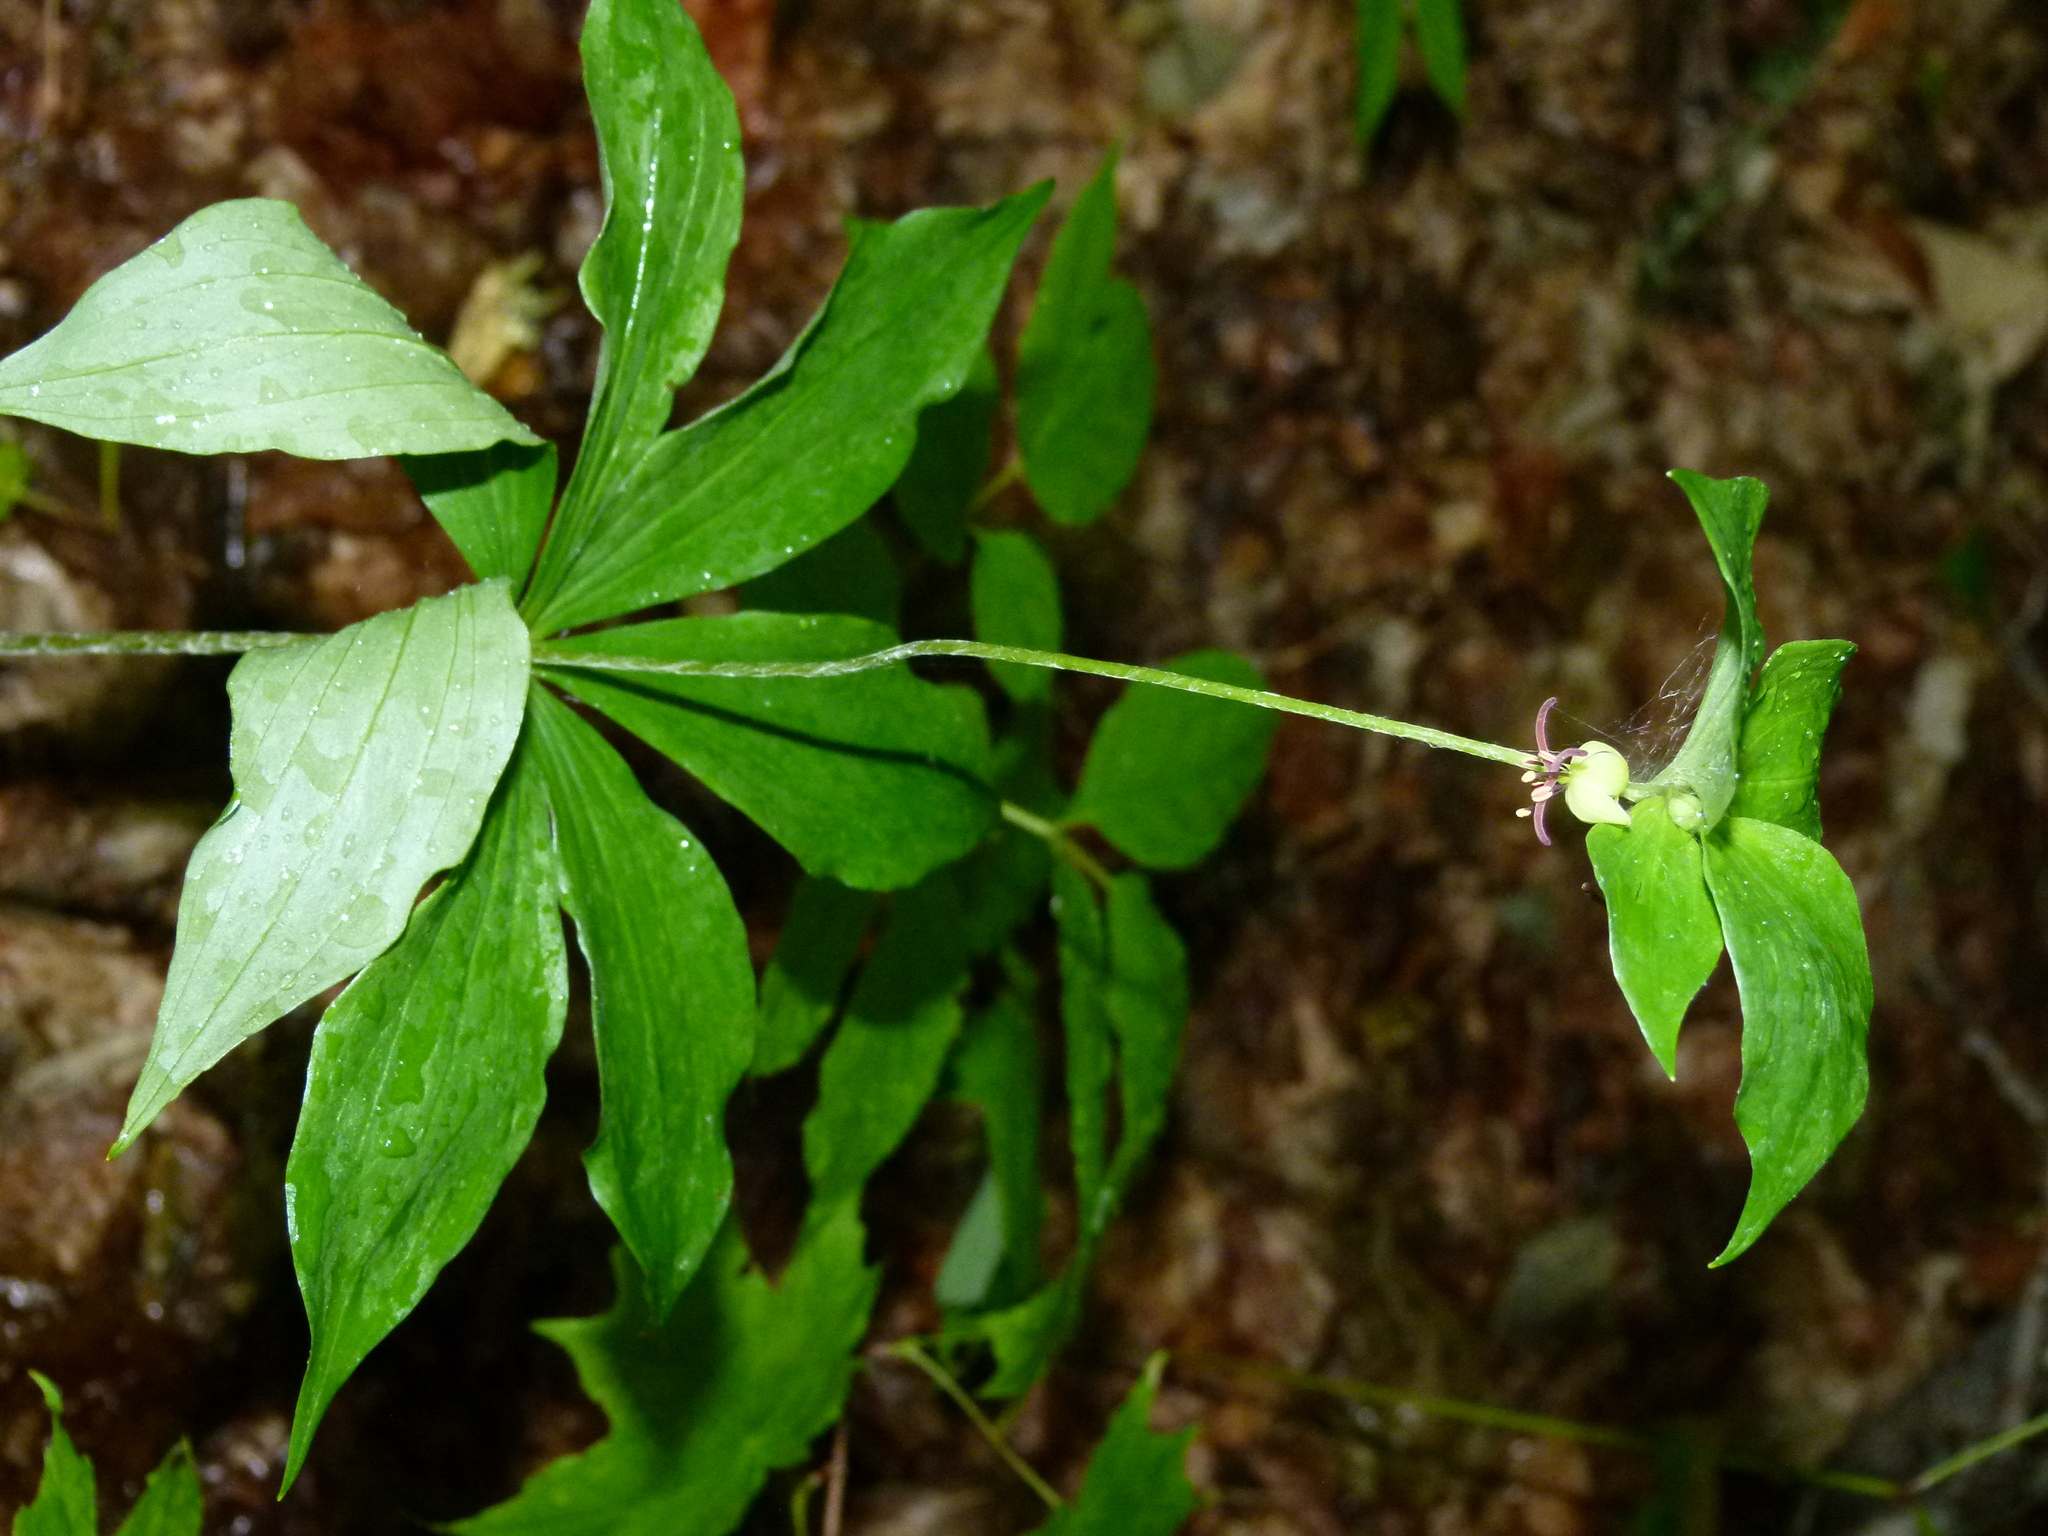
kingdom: Plantae
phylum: Tracheophyta
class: Liliopsida
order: Liliales
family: Liliaceae
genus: Medeola
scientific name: Medeola virginiana
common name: Indian cucumber-root
